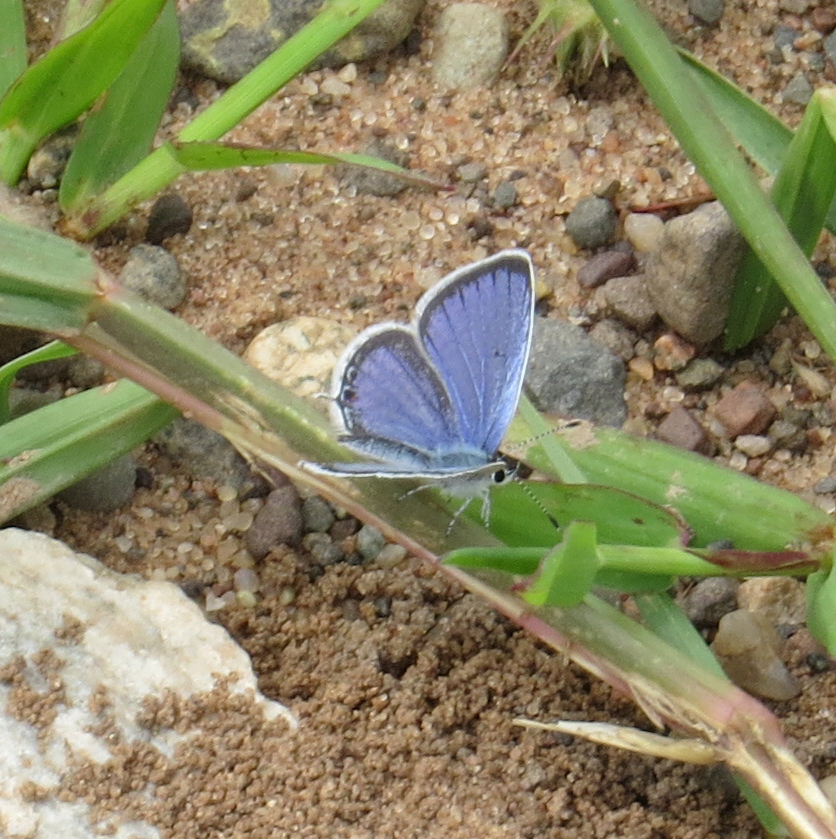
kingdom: Animalia
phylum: Arthropoda
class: Insecta
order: Lepidoptera
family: Lycaenidae
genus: Elkalyce
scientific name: Elkalyce comyntas
